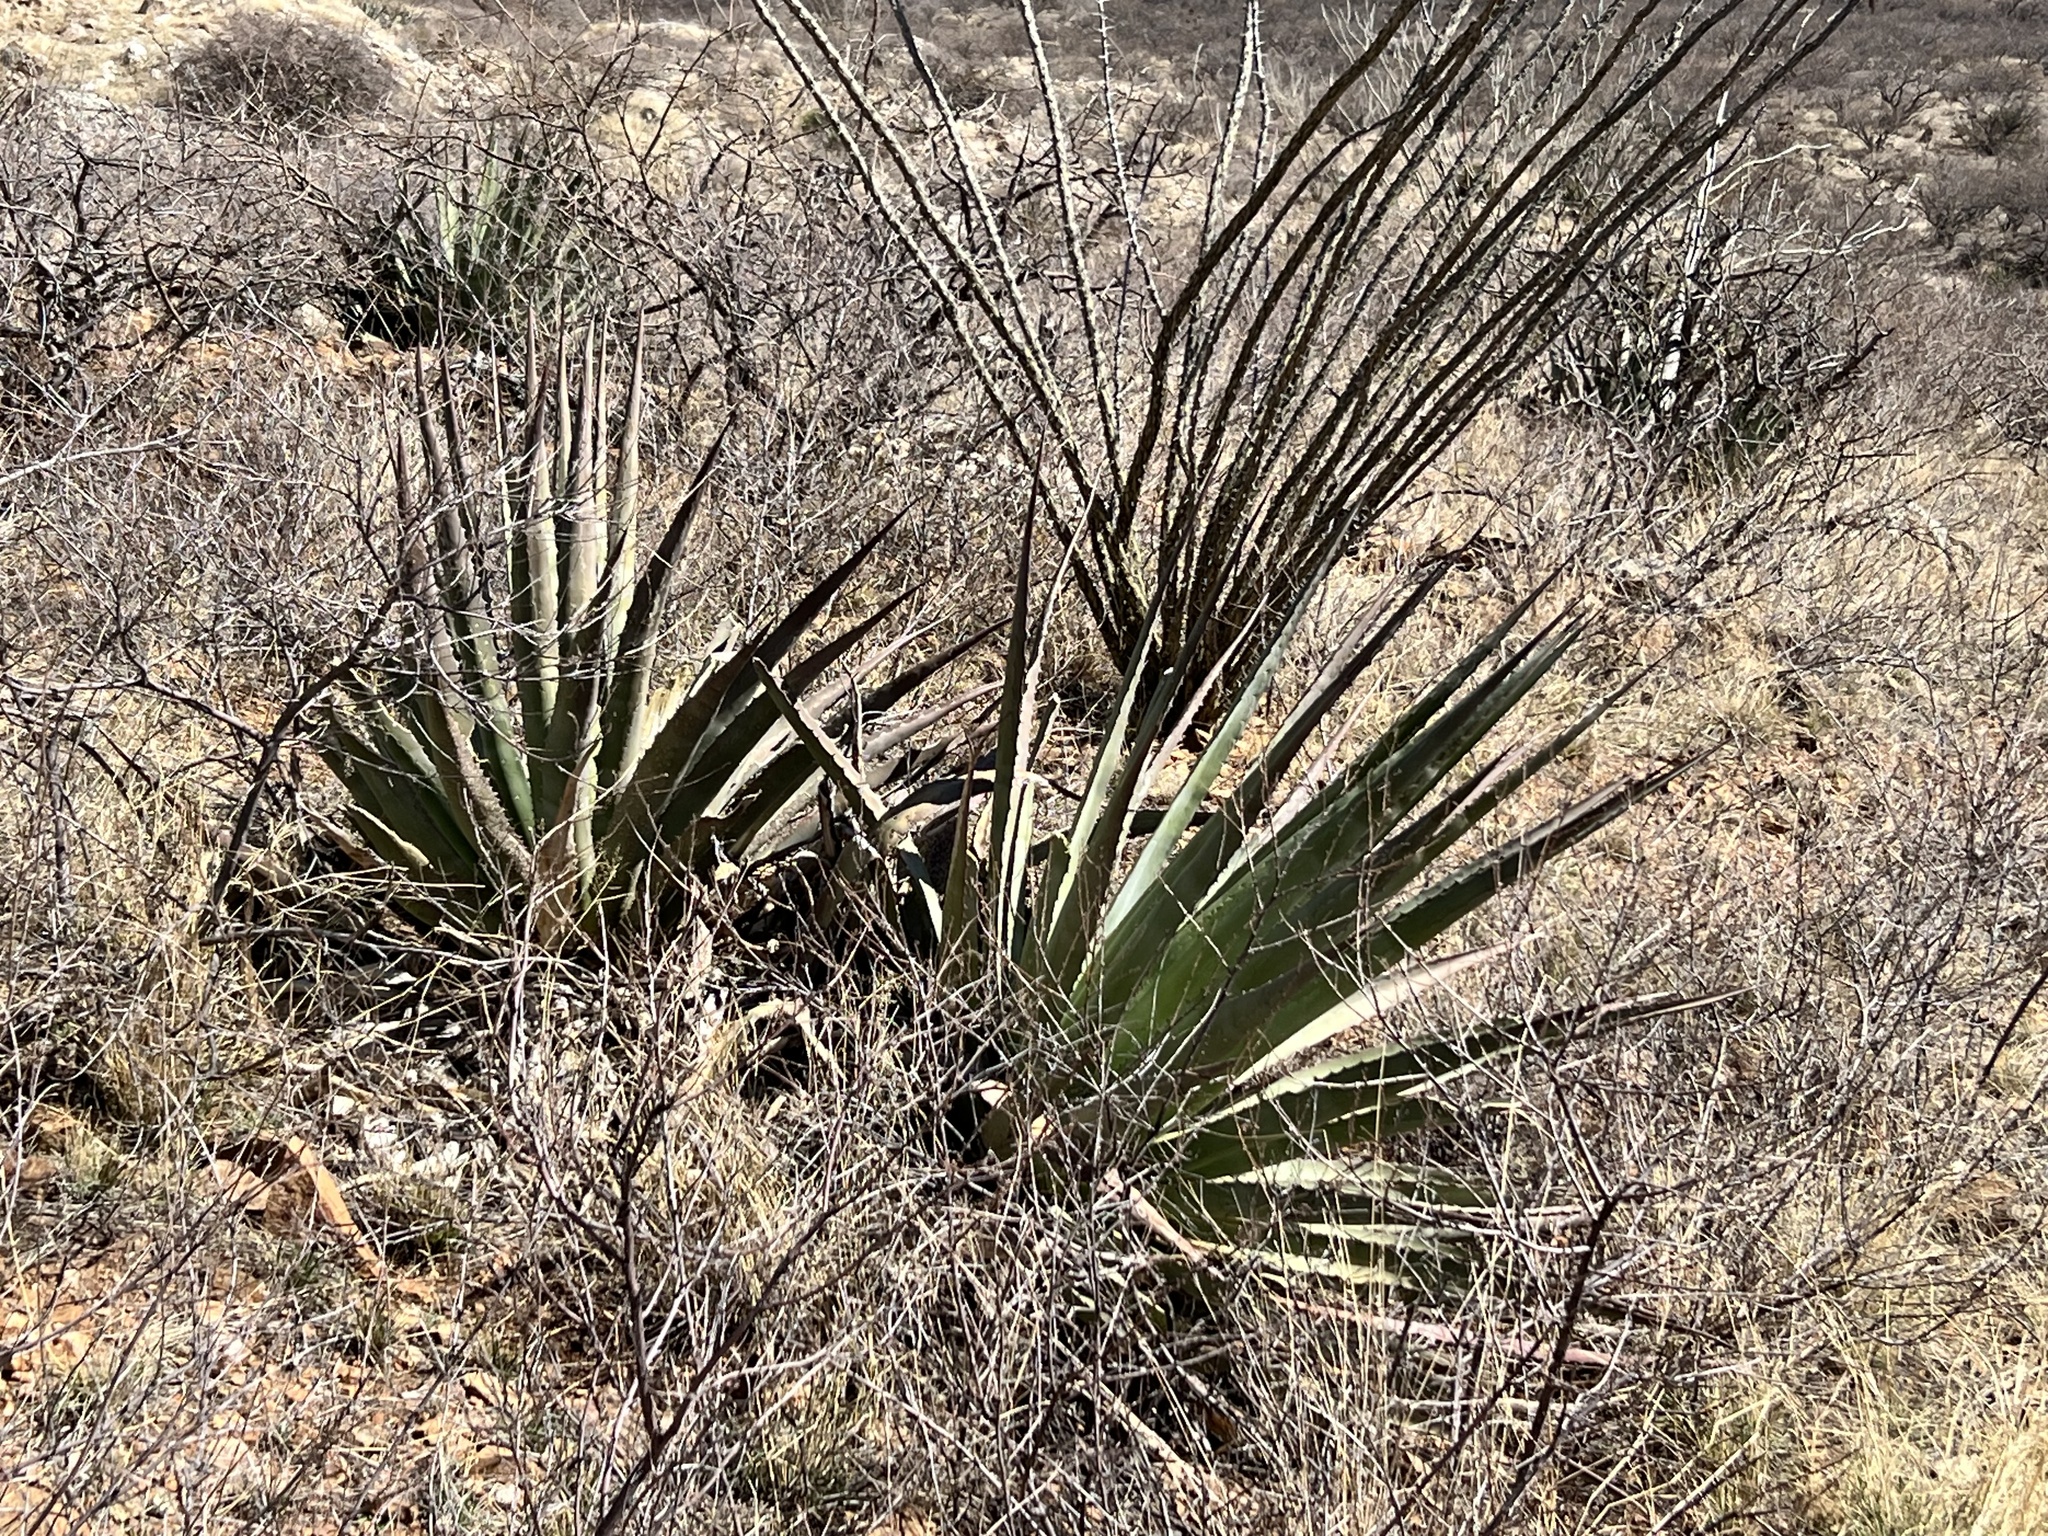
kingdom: Plantae
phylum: Tracheophyta
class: Liliopsida
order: Asparagales
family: Asparagaceae
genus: Agave
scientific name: Agave palmeri
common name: Palmer agave
